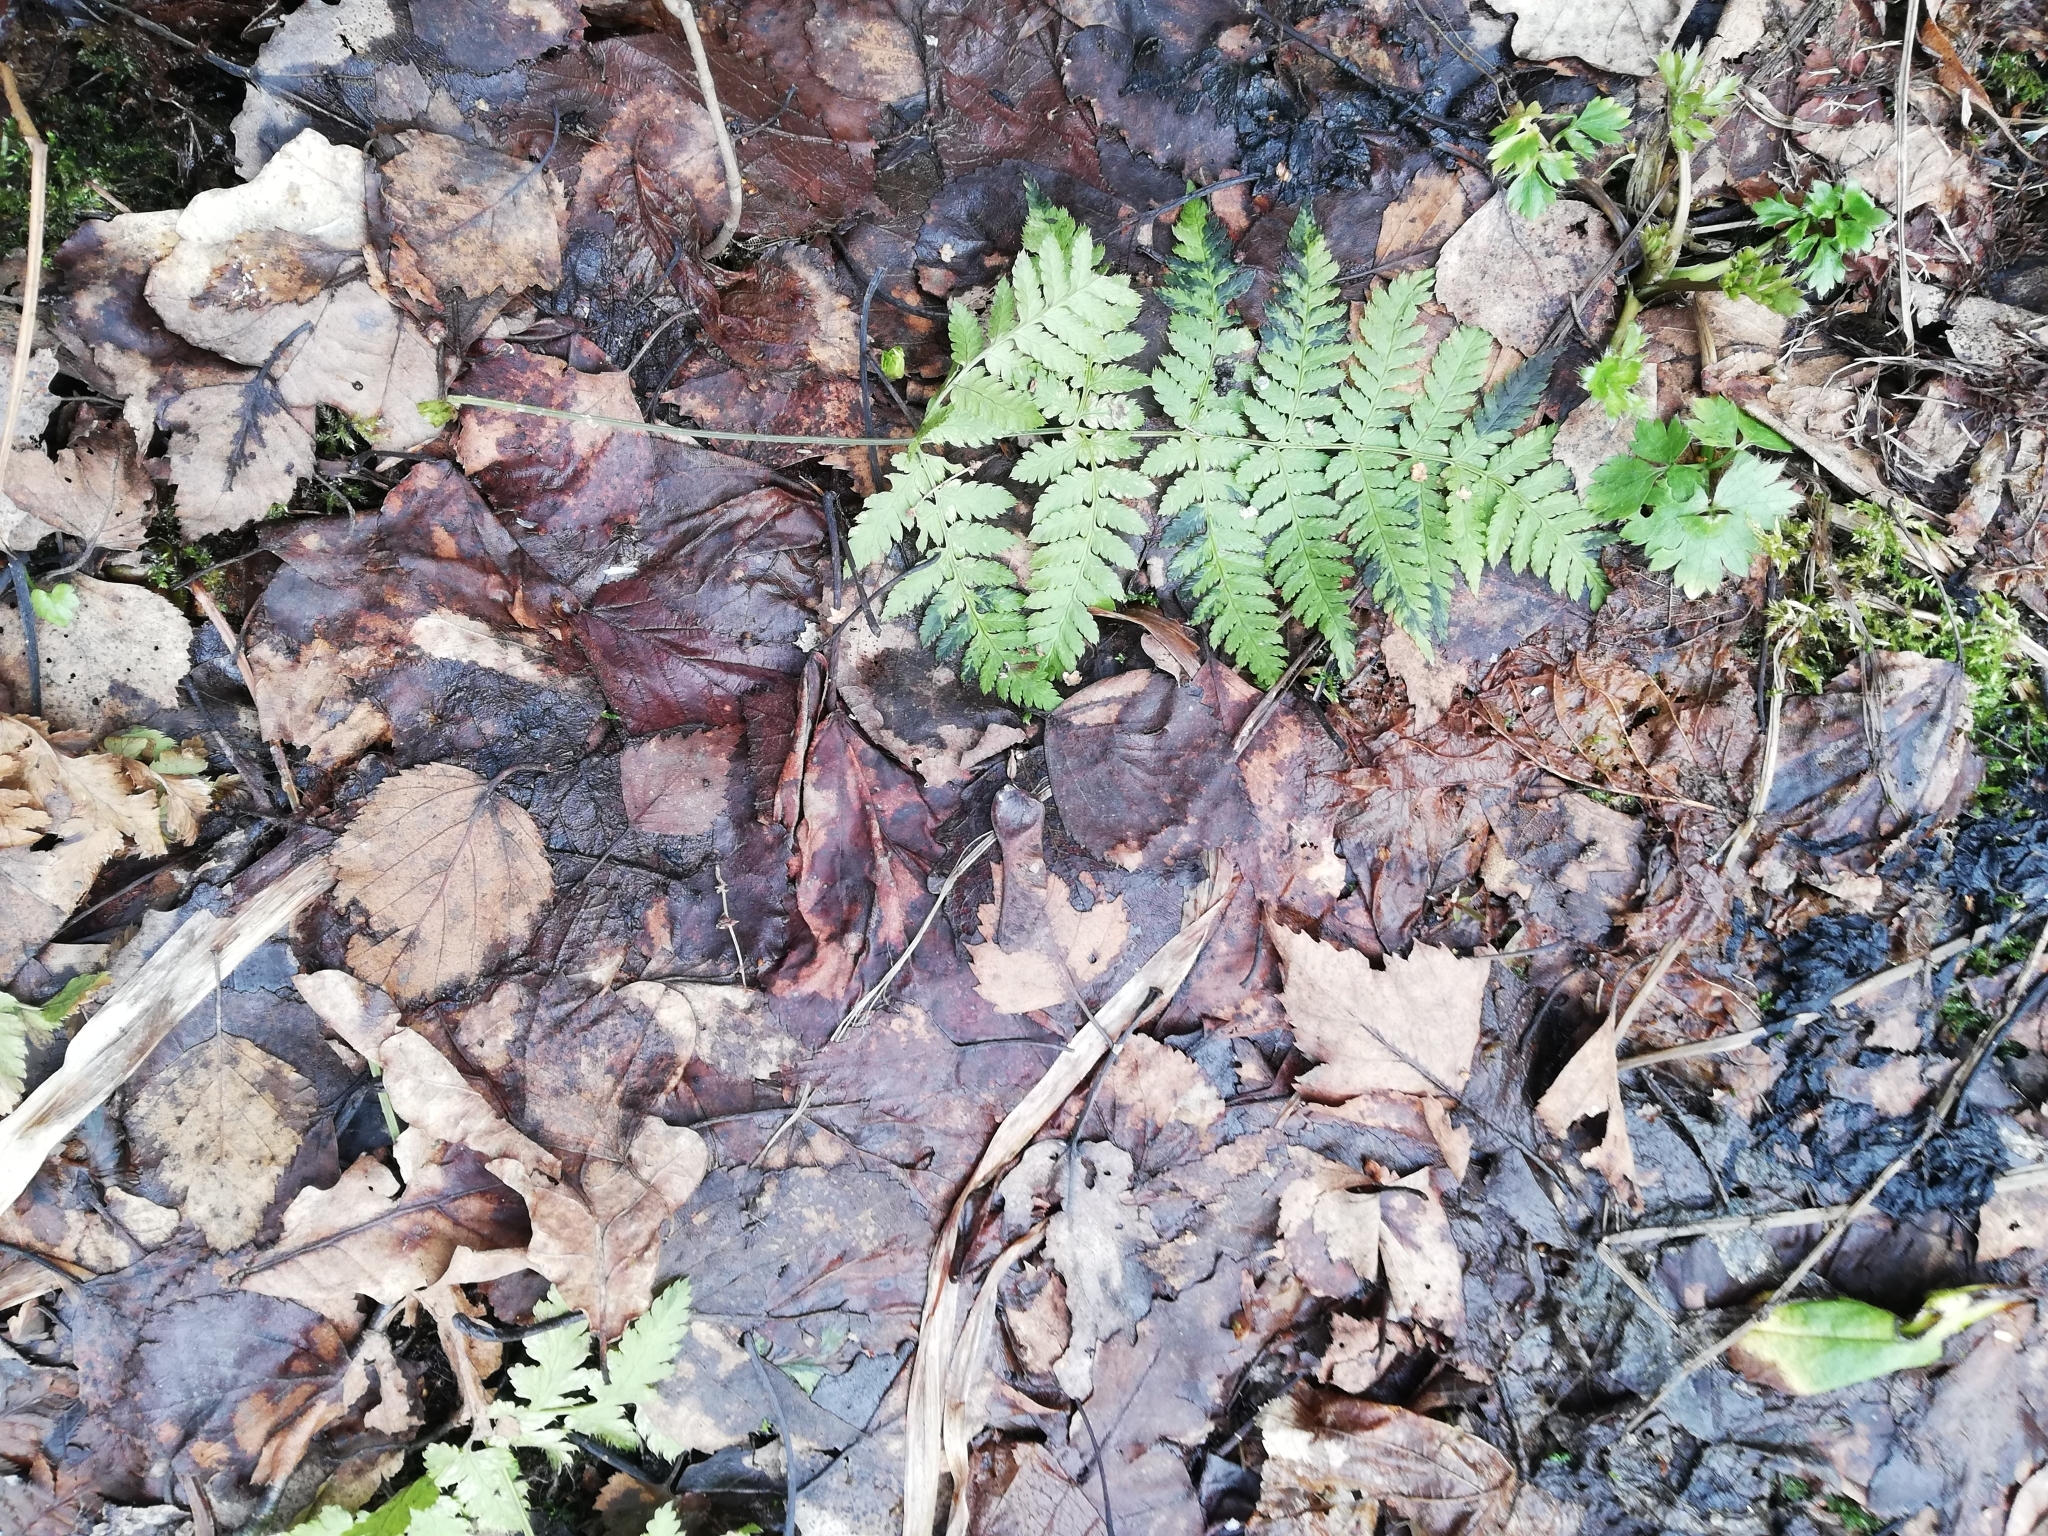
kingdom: Plantae
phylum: Tracheophyta
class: Polypodiopsida
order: Polypodiales
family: Dryopteridaceae
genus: Dryopteris
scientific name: Dryopteris carthusiana
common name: Narrow buckler-fern
